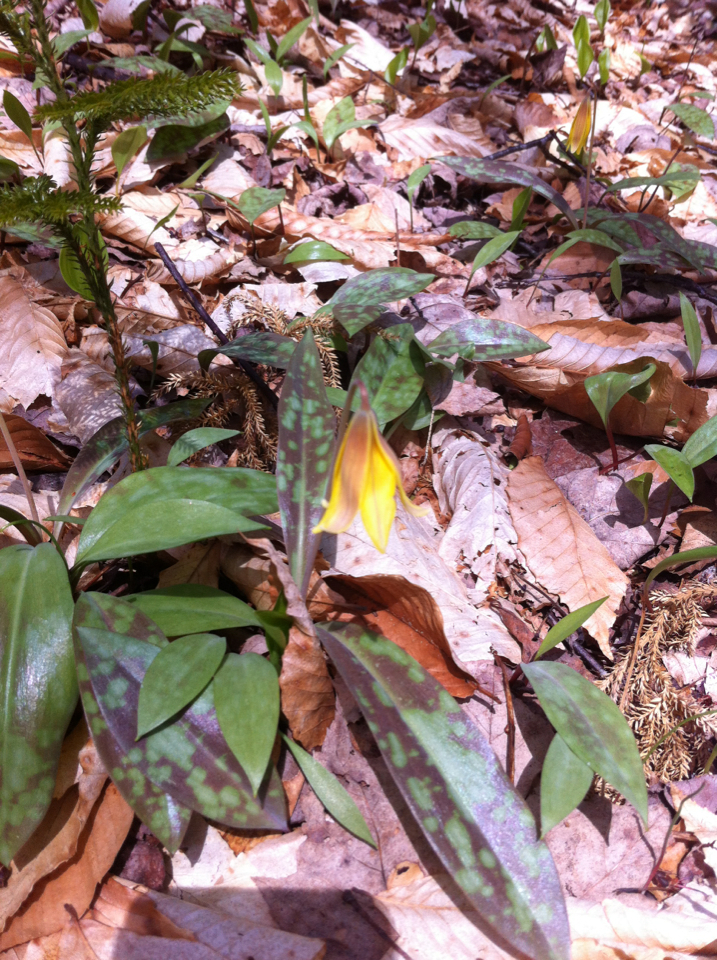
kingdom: Plantae
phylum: Tracheophyta
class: Liliopsida
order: Liliales
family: Liliaceae
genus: Erythronium
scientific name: Erythronium americanum
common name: Yellow adder's-tongue
